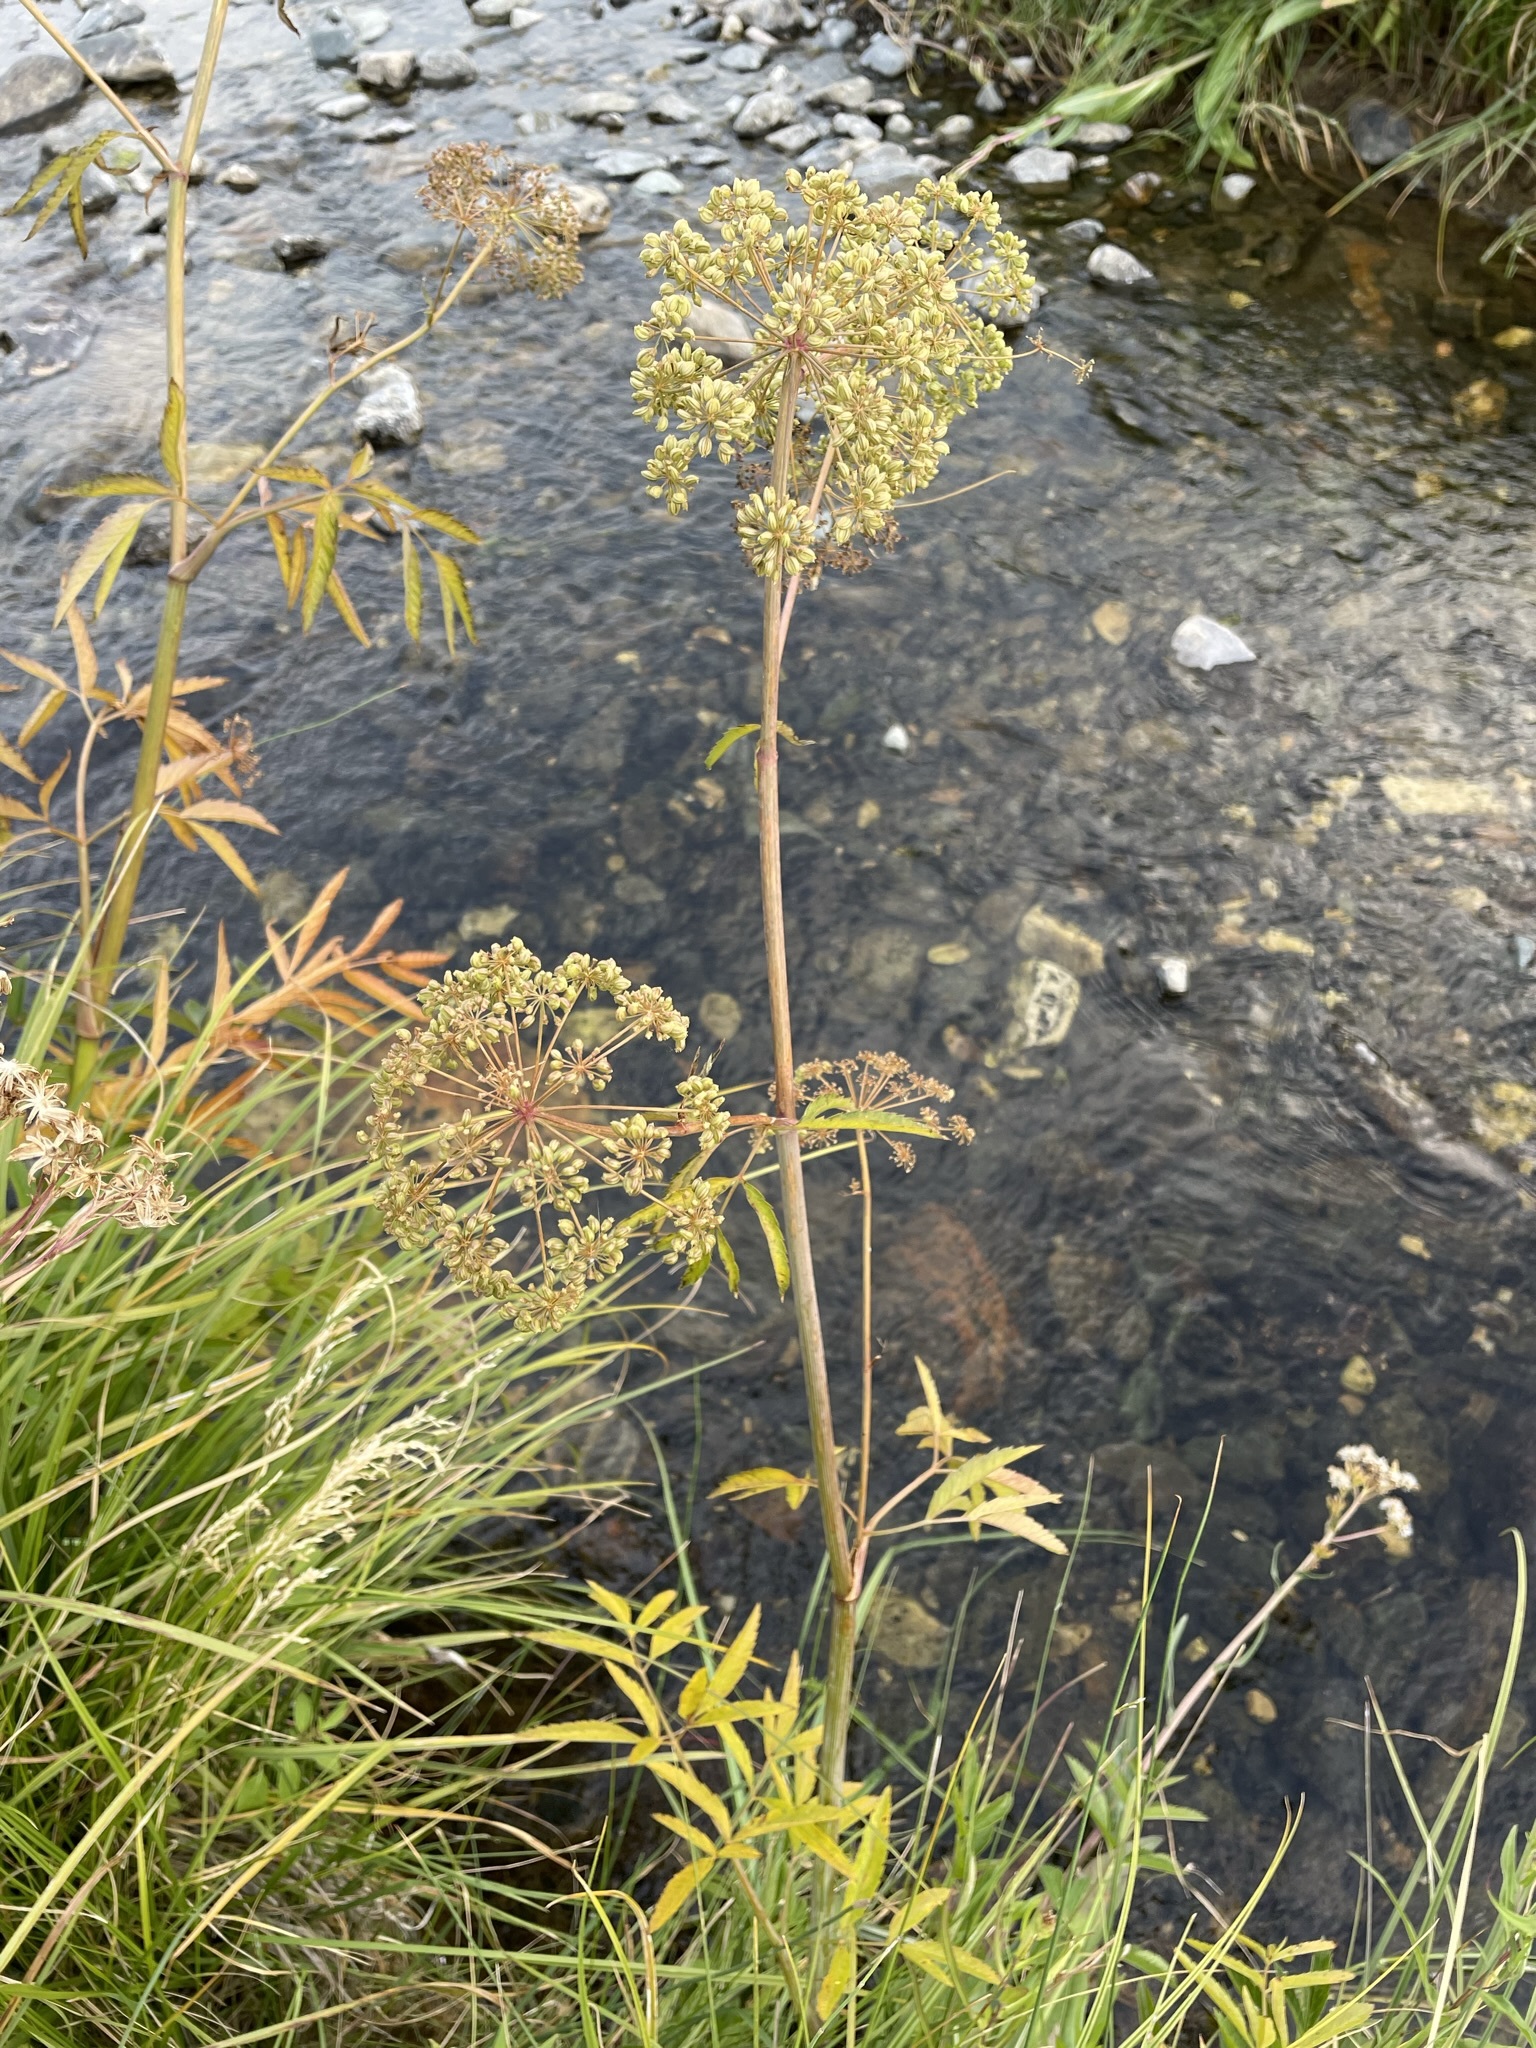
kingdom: Plantae
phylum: Tracheophyta
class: Magnoliopsida
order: Apiales
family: Apiaceae
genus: Cicuta
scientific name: Cicuta maculata
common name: Spotted cowbane
